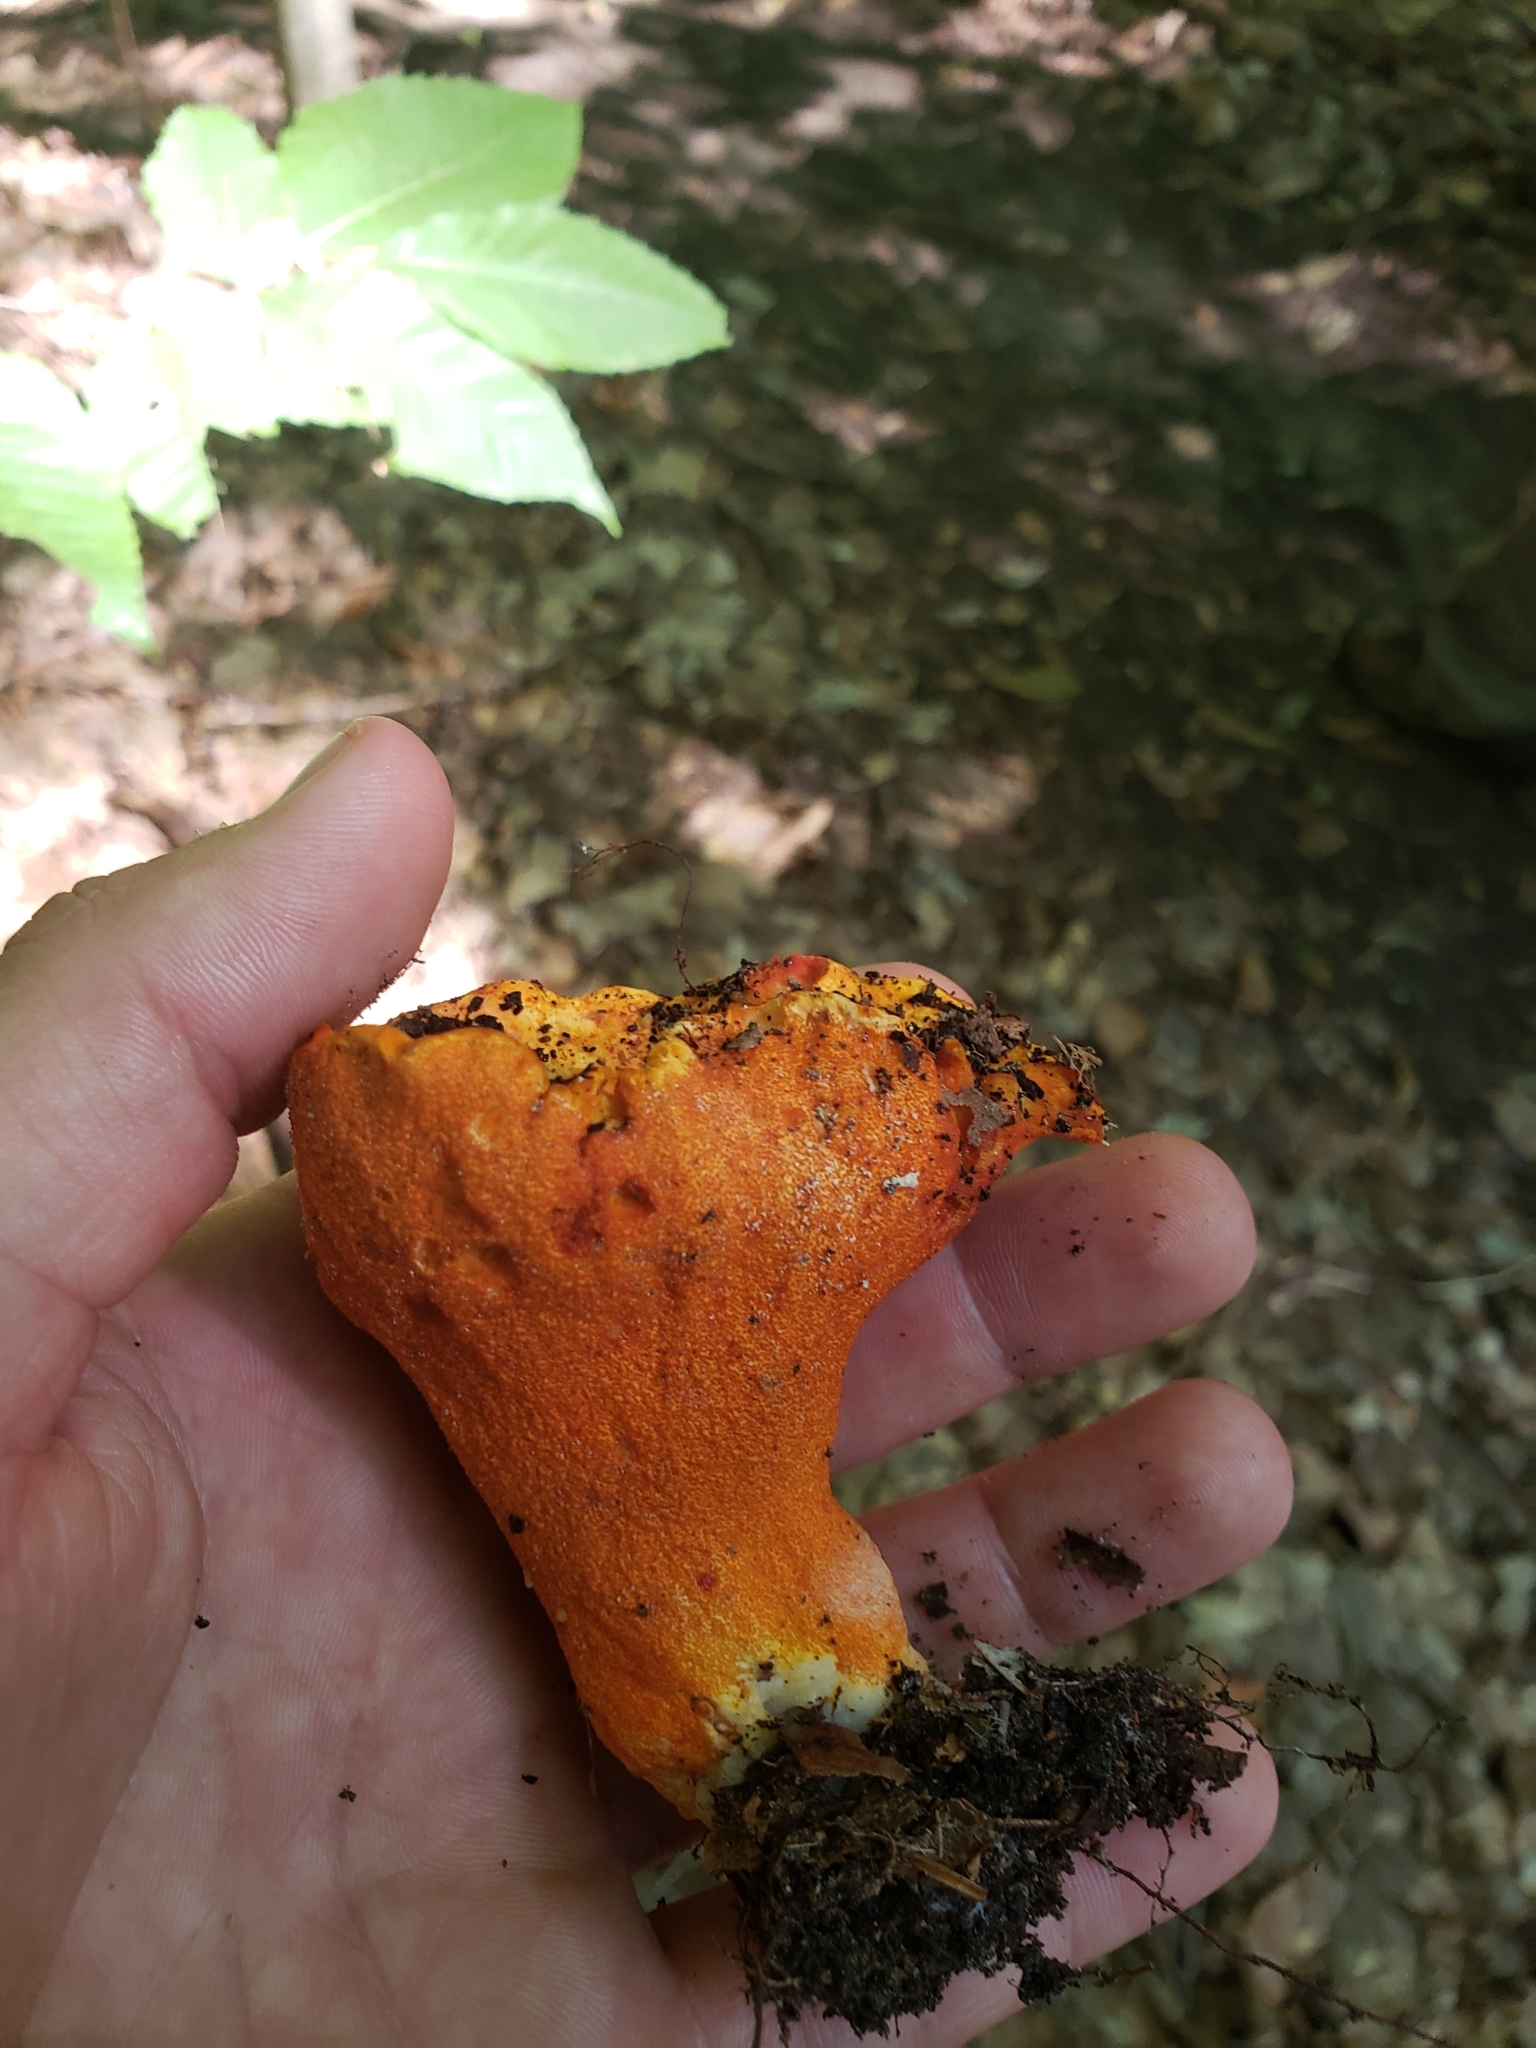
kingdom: Fungi
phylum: Ascomycota
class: Sordariomycetes
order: Hypocreales
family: Hypocreaceae
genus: Hypomyces
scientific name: Hypomyces lactifluorum
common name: Lobster mushroom
